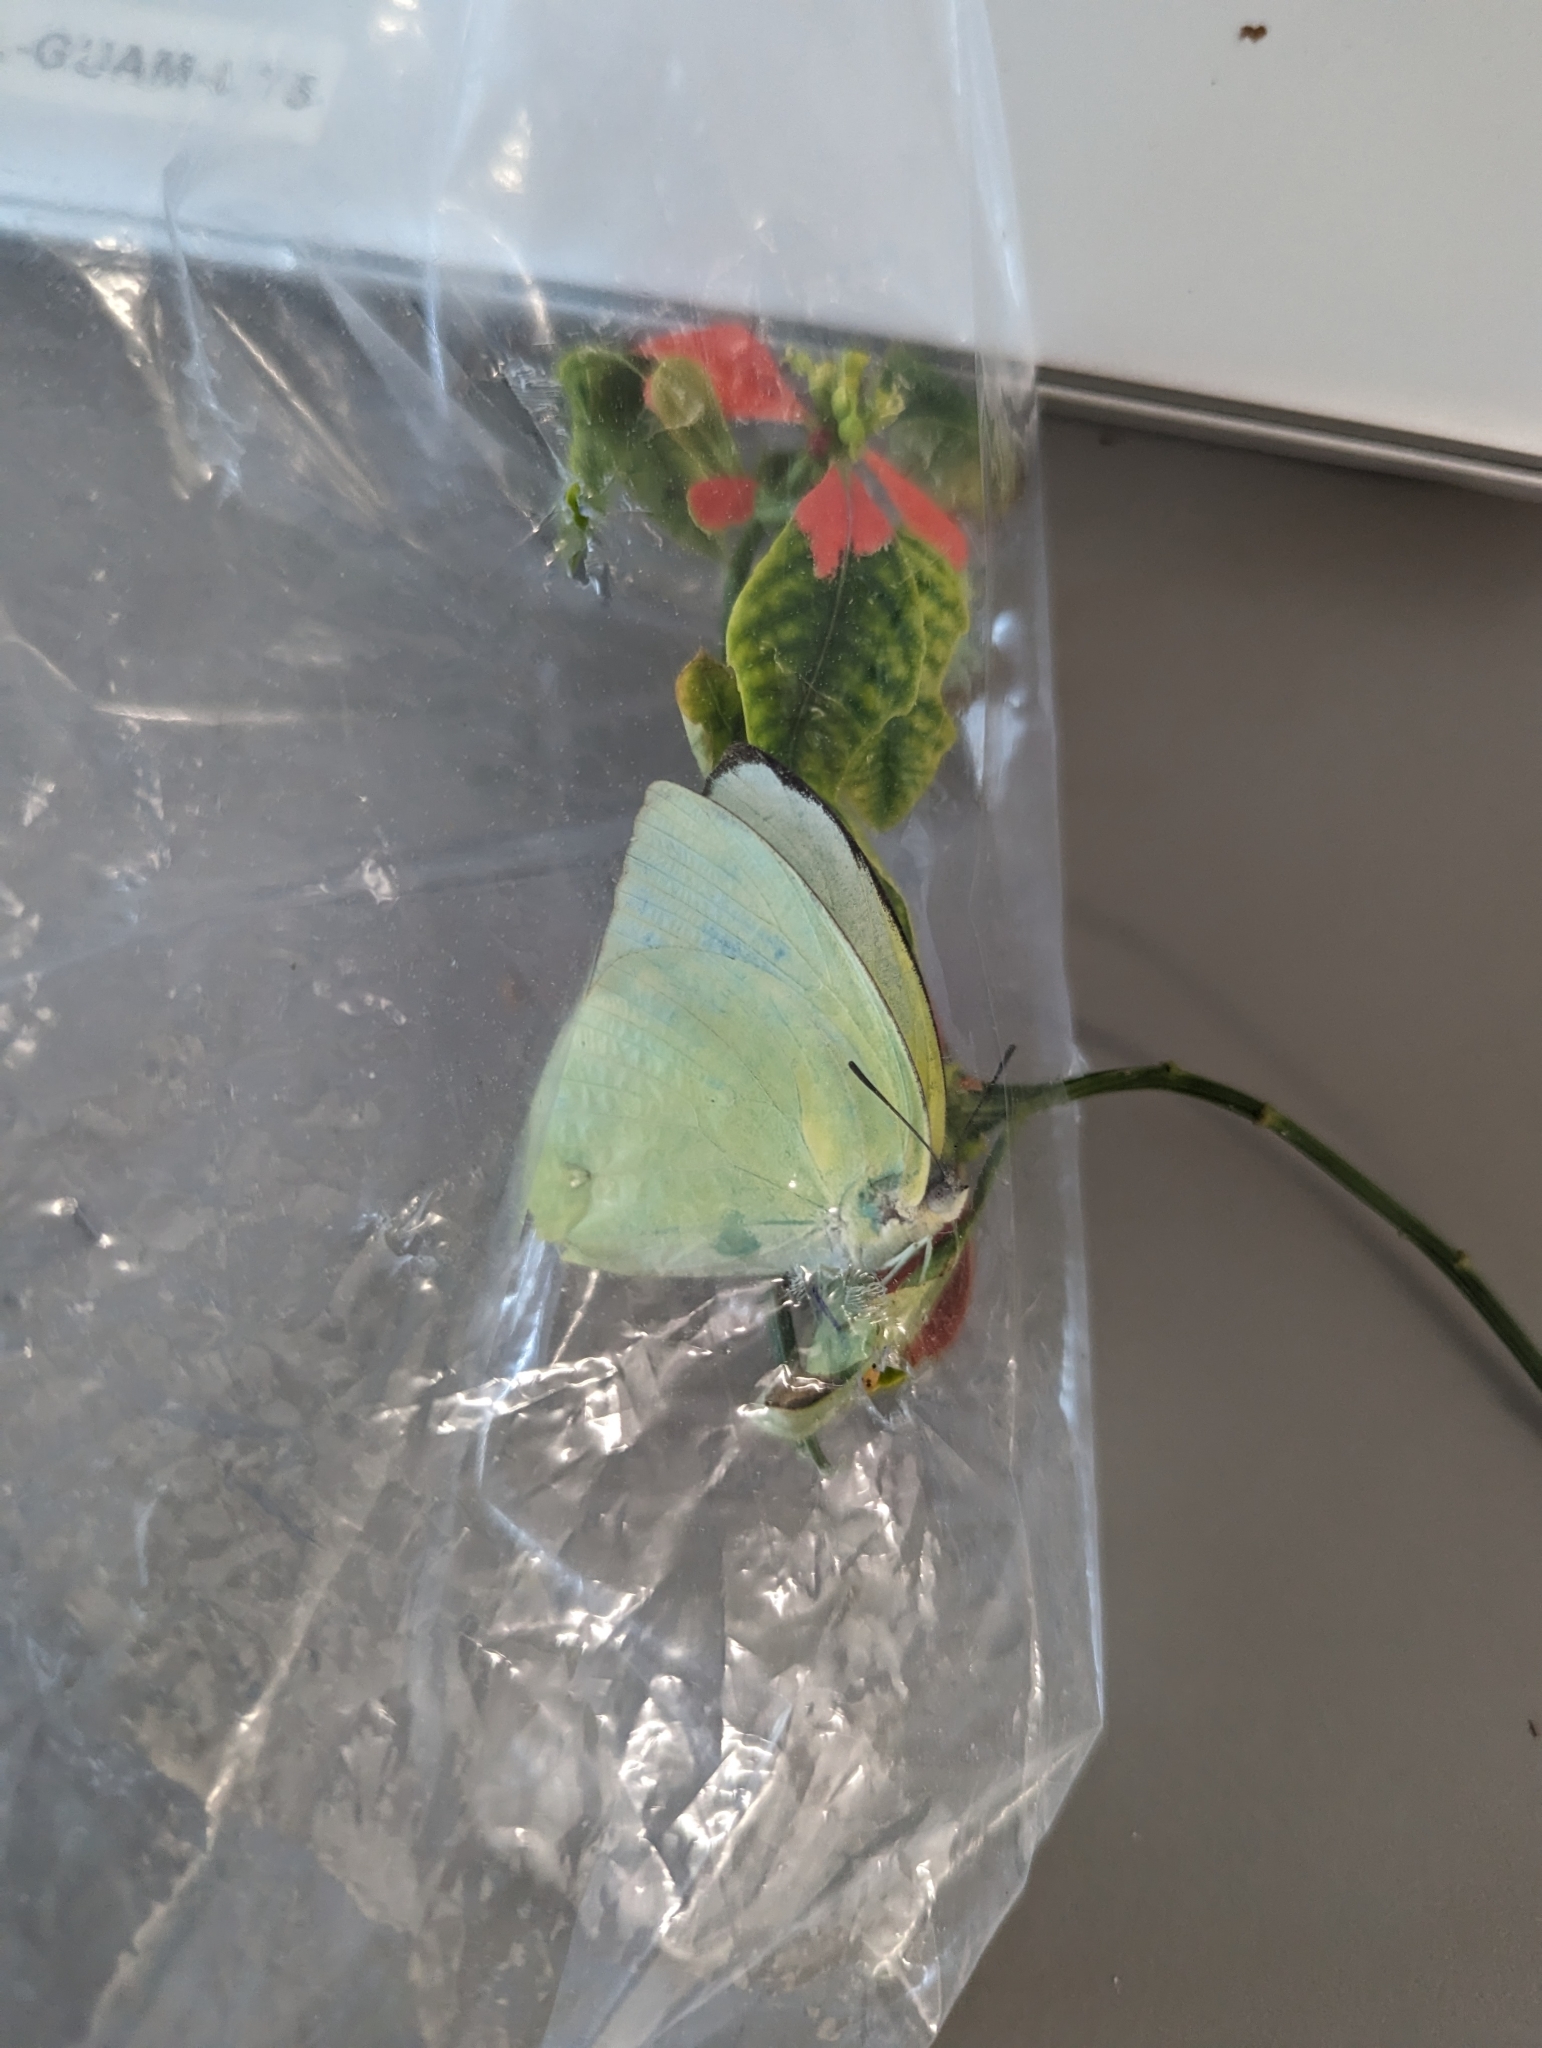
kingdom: Animalia
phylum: Arthropoda
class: Insecta
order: Lepidoptera
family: Pieridae
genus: Catopsilia
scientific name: Catopsilia pomona
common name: Common emigrant
